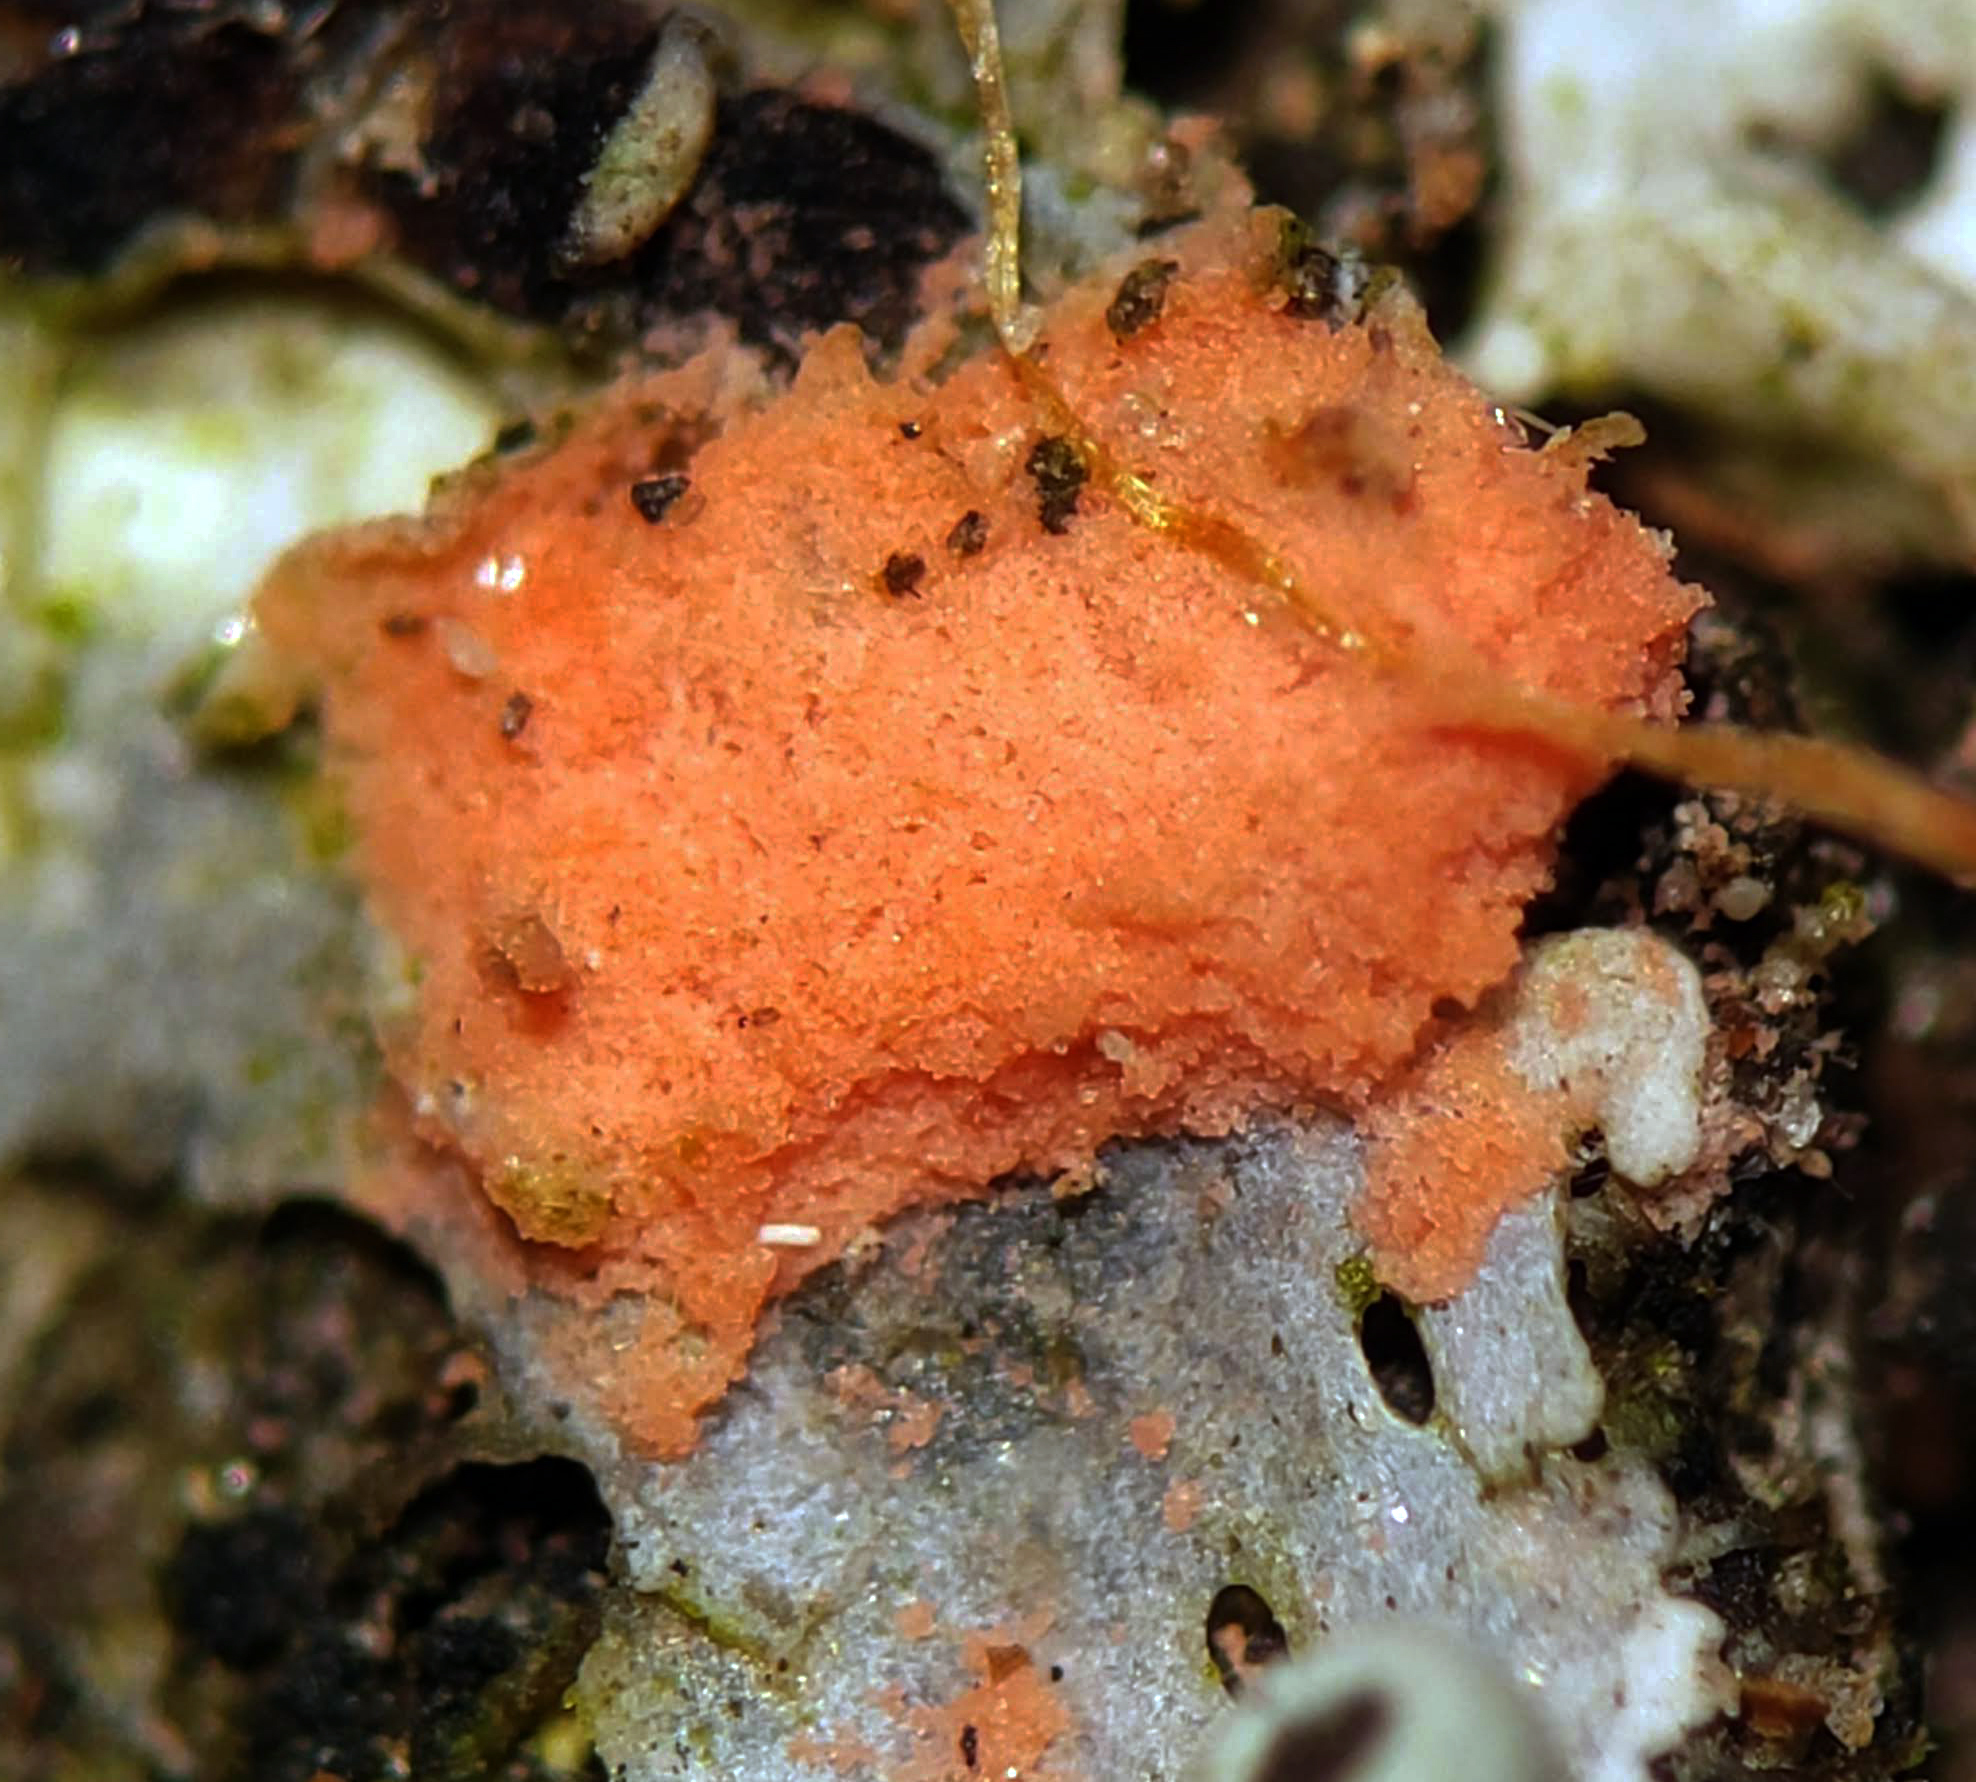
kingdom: Fungi
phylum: Ascomycota
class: Sordariomycetes
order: Hypocreales
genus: Illosporiopsis
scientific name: Illosporiopsis christiansenii
